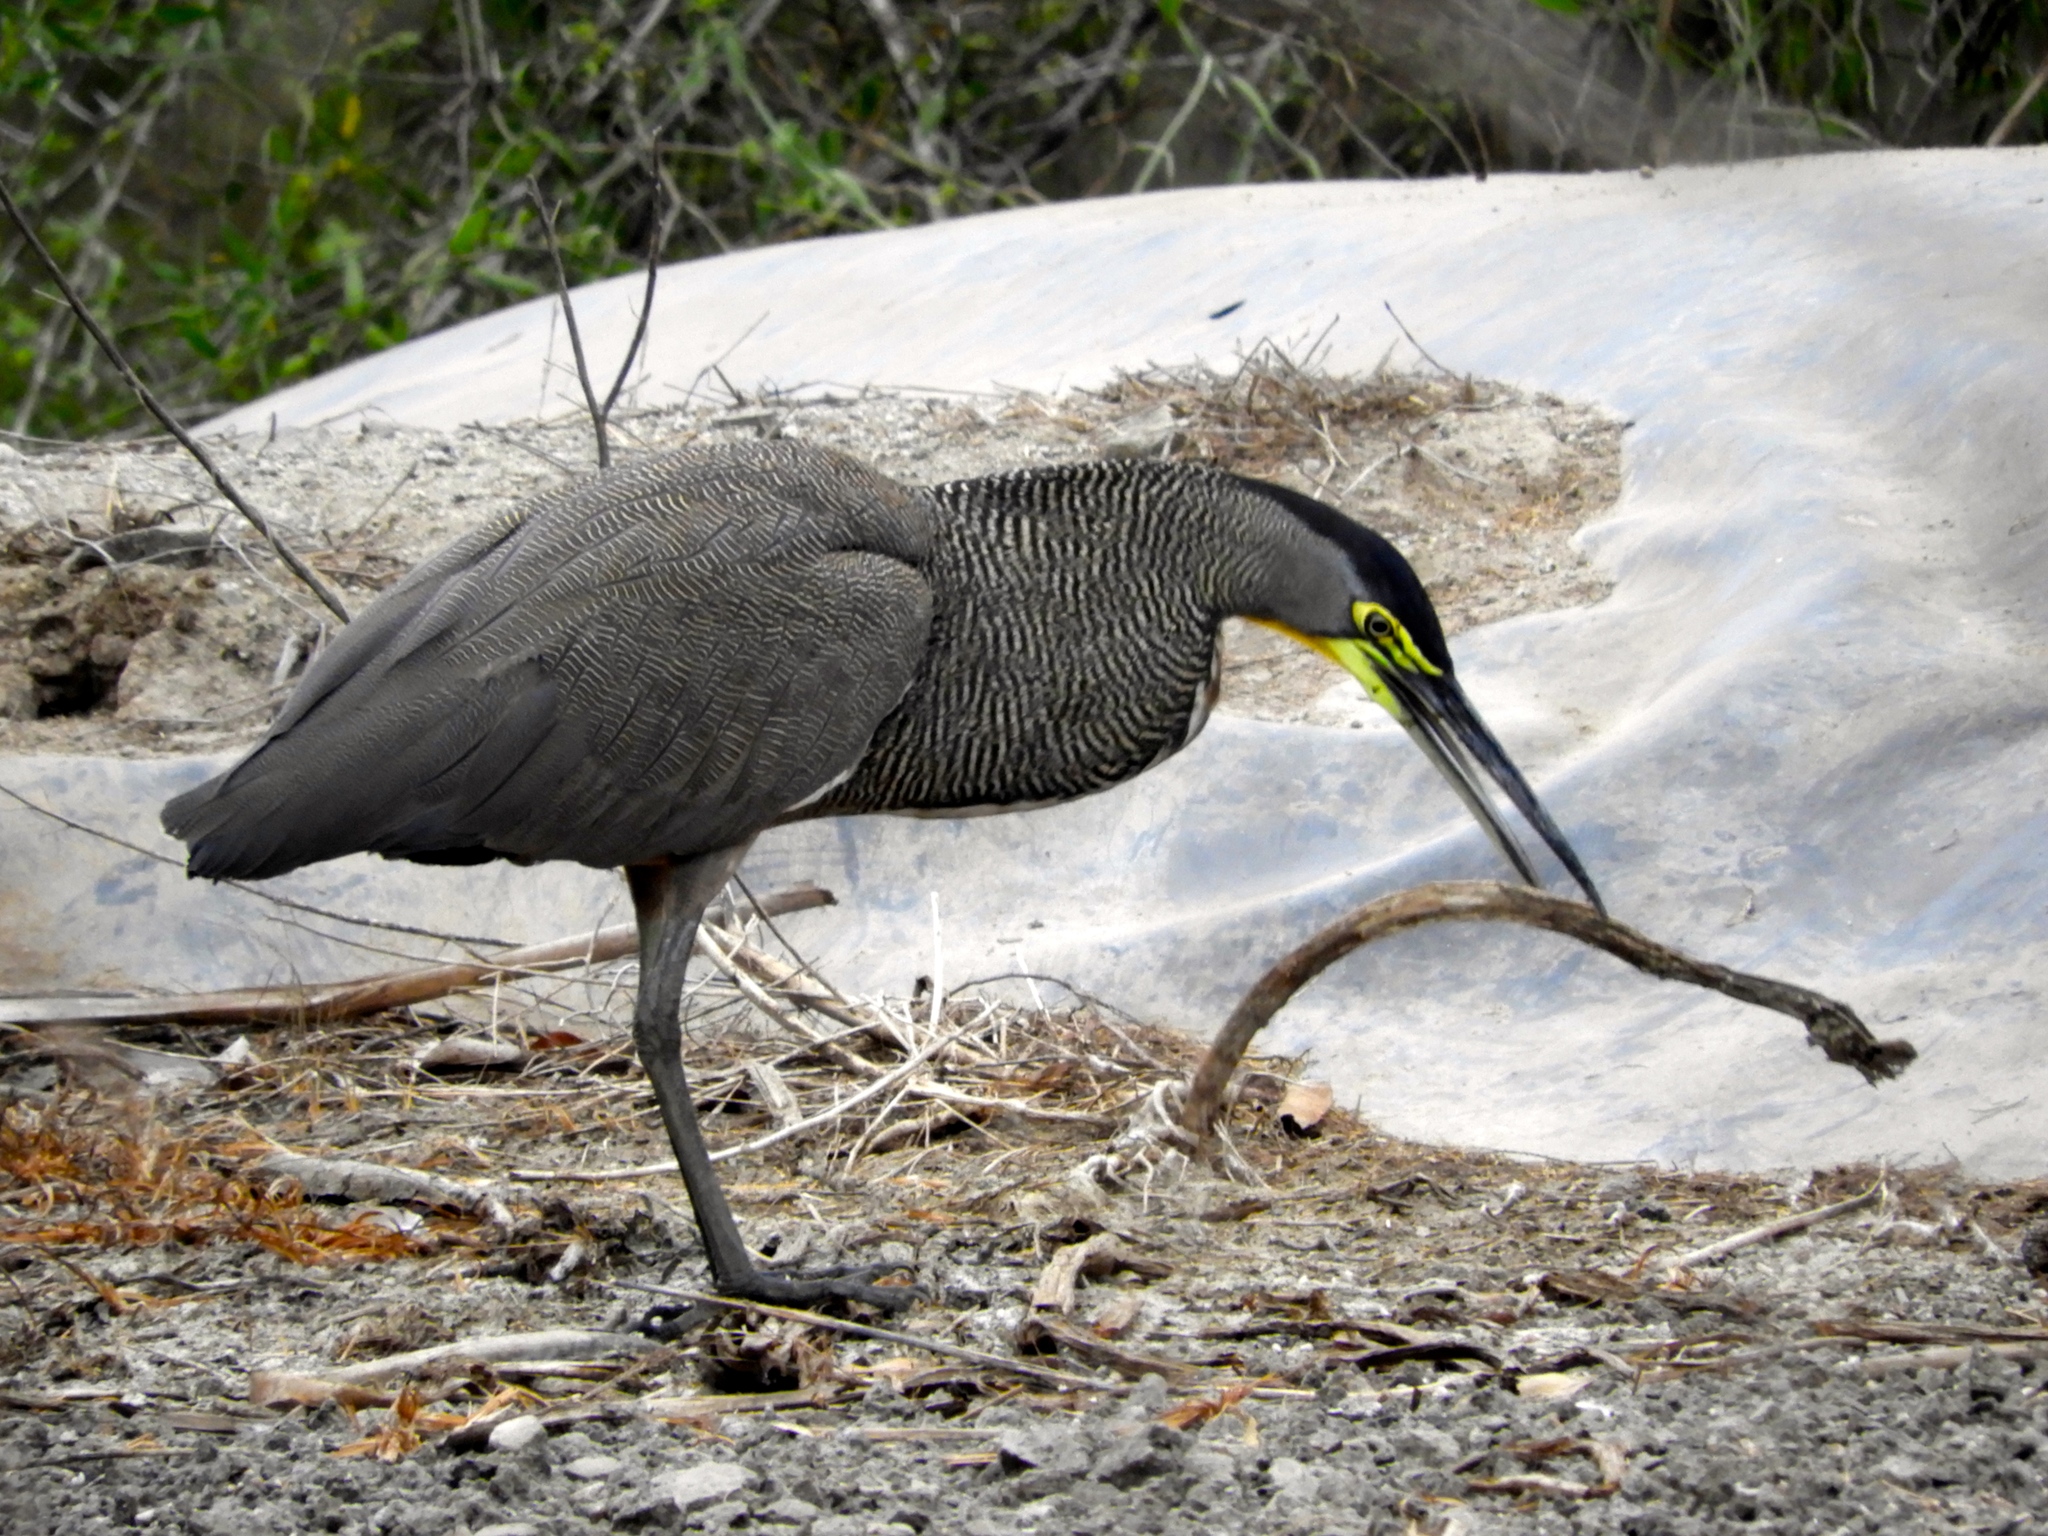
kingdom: Animalia
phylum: Chordata
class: Aves
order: Pelecaniformes
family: Ardeidae
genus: Tigrisoma
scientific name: Tigrisoma mexicanum
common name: Bare-throated tiger-heron
